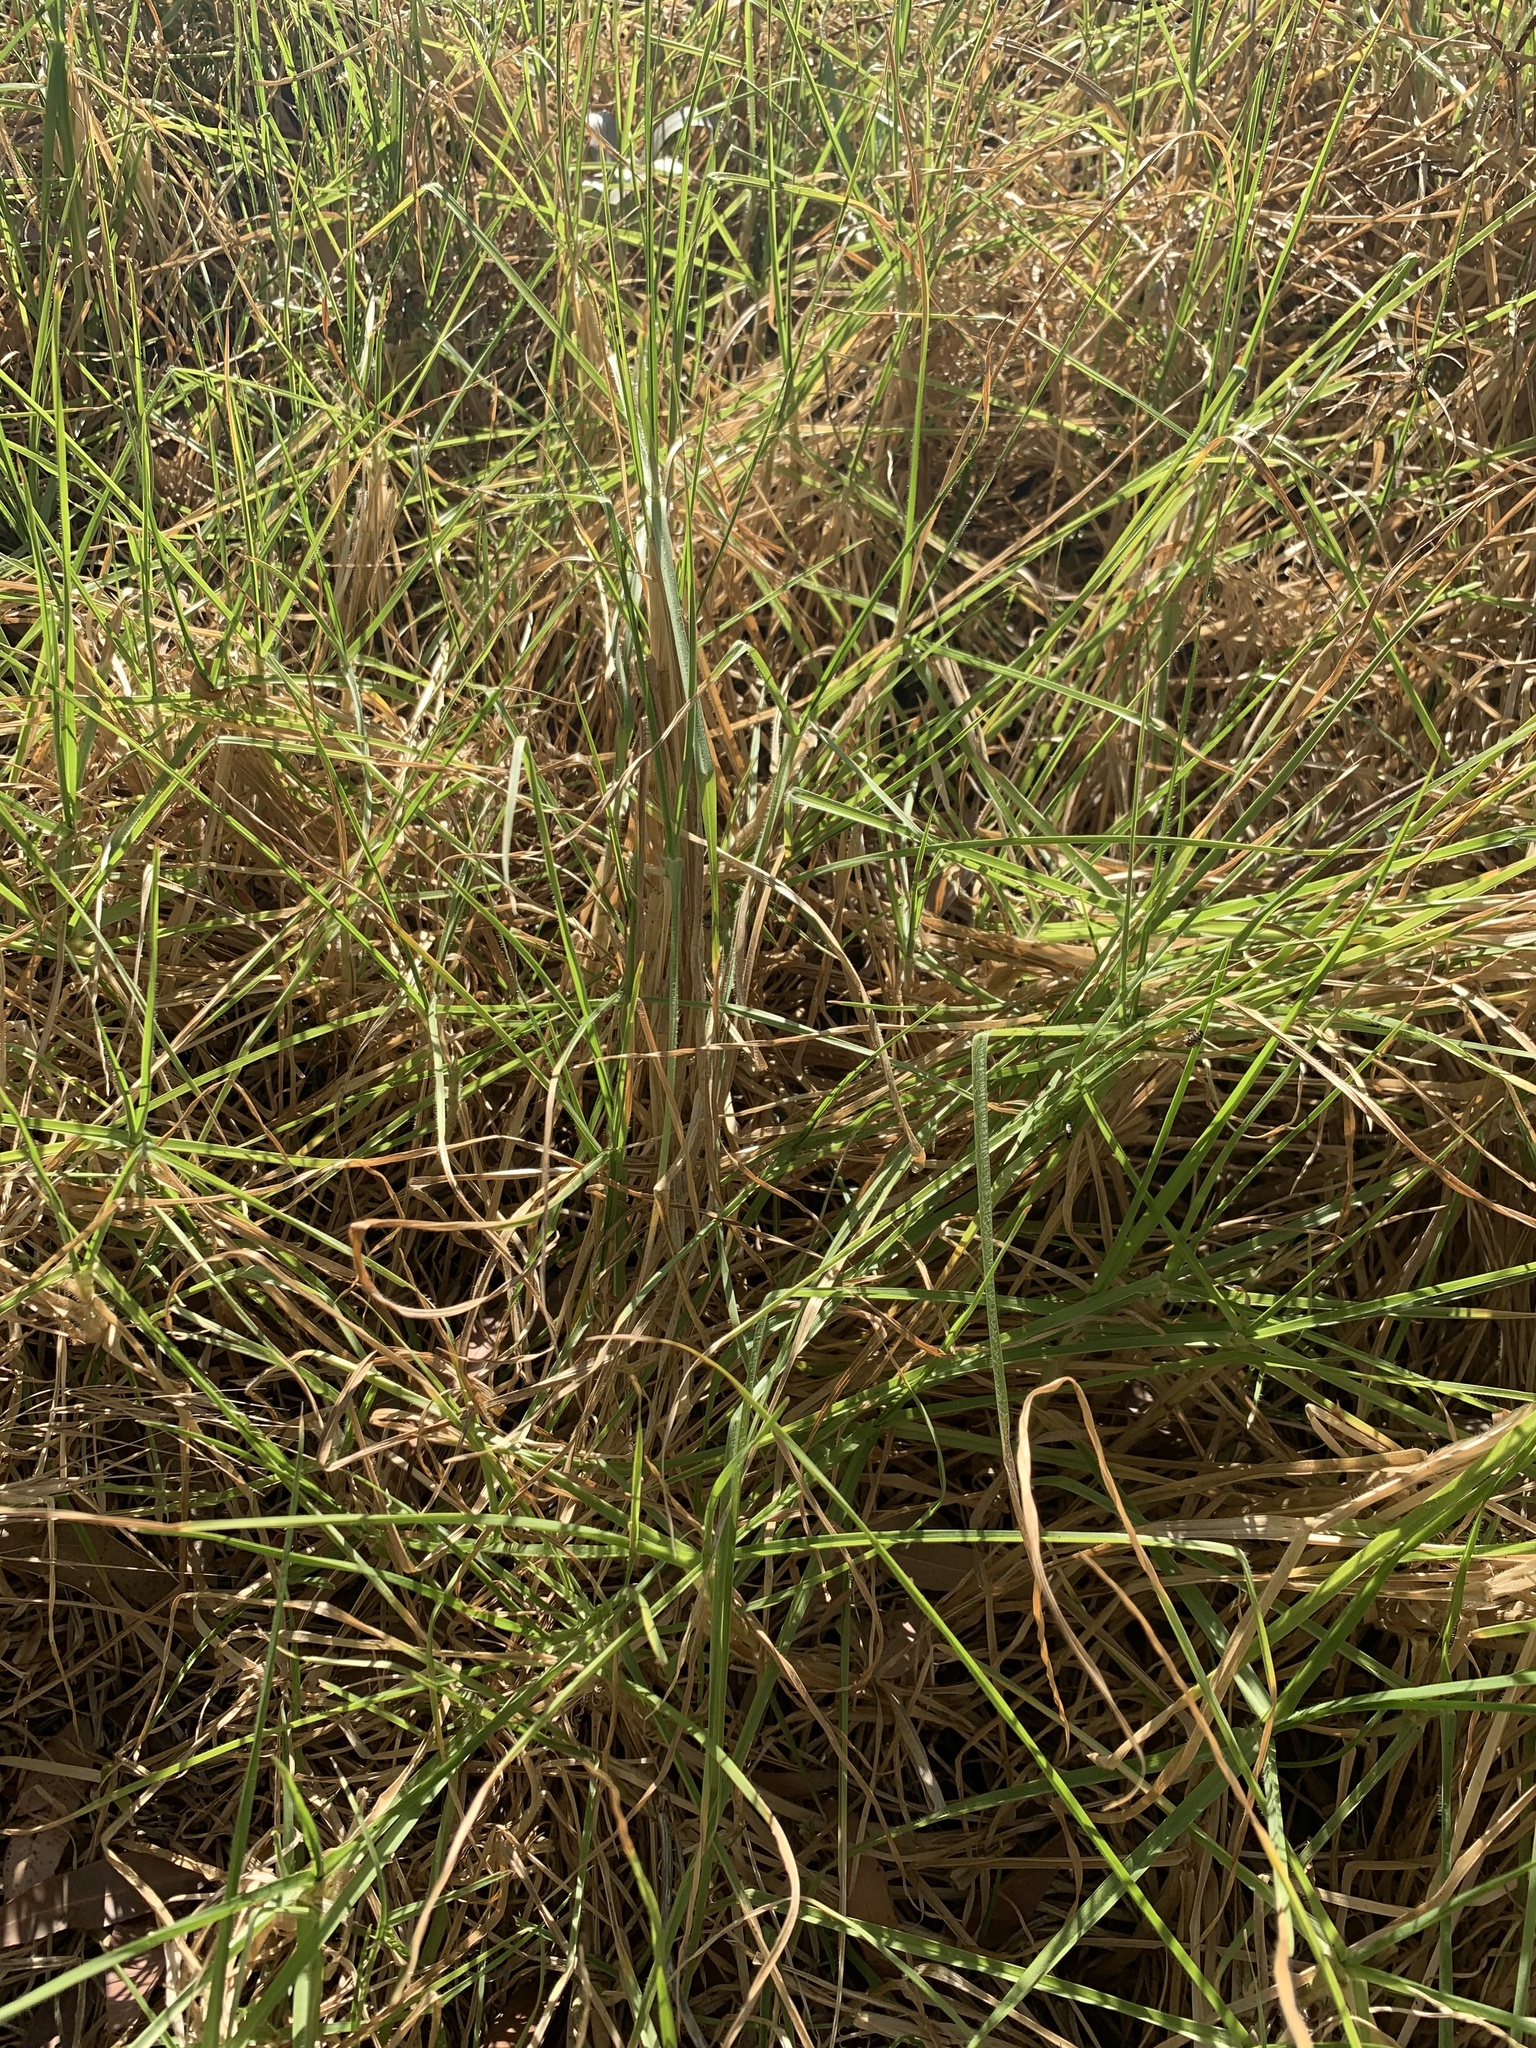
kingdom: Plantae
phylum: Tracheophyta
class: Liliopsida
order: Poales
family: Poaceae
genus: Cenchrus
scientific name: Cenchrus clandestinus
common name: Kikuyugrass
